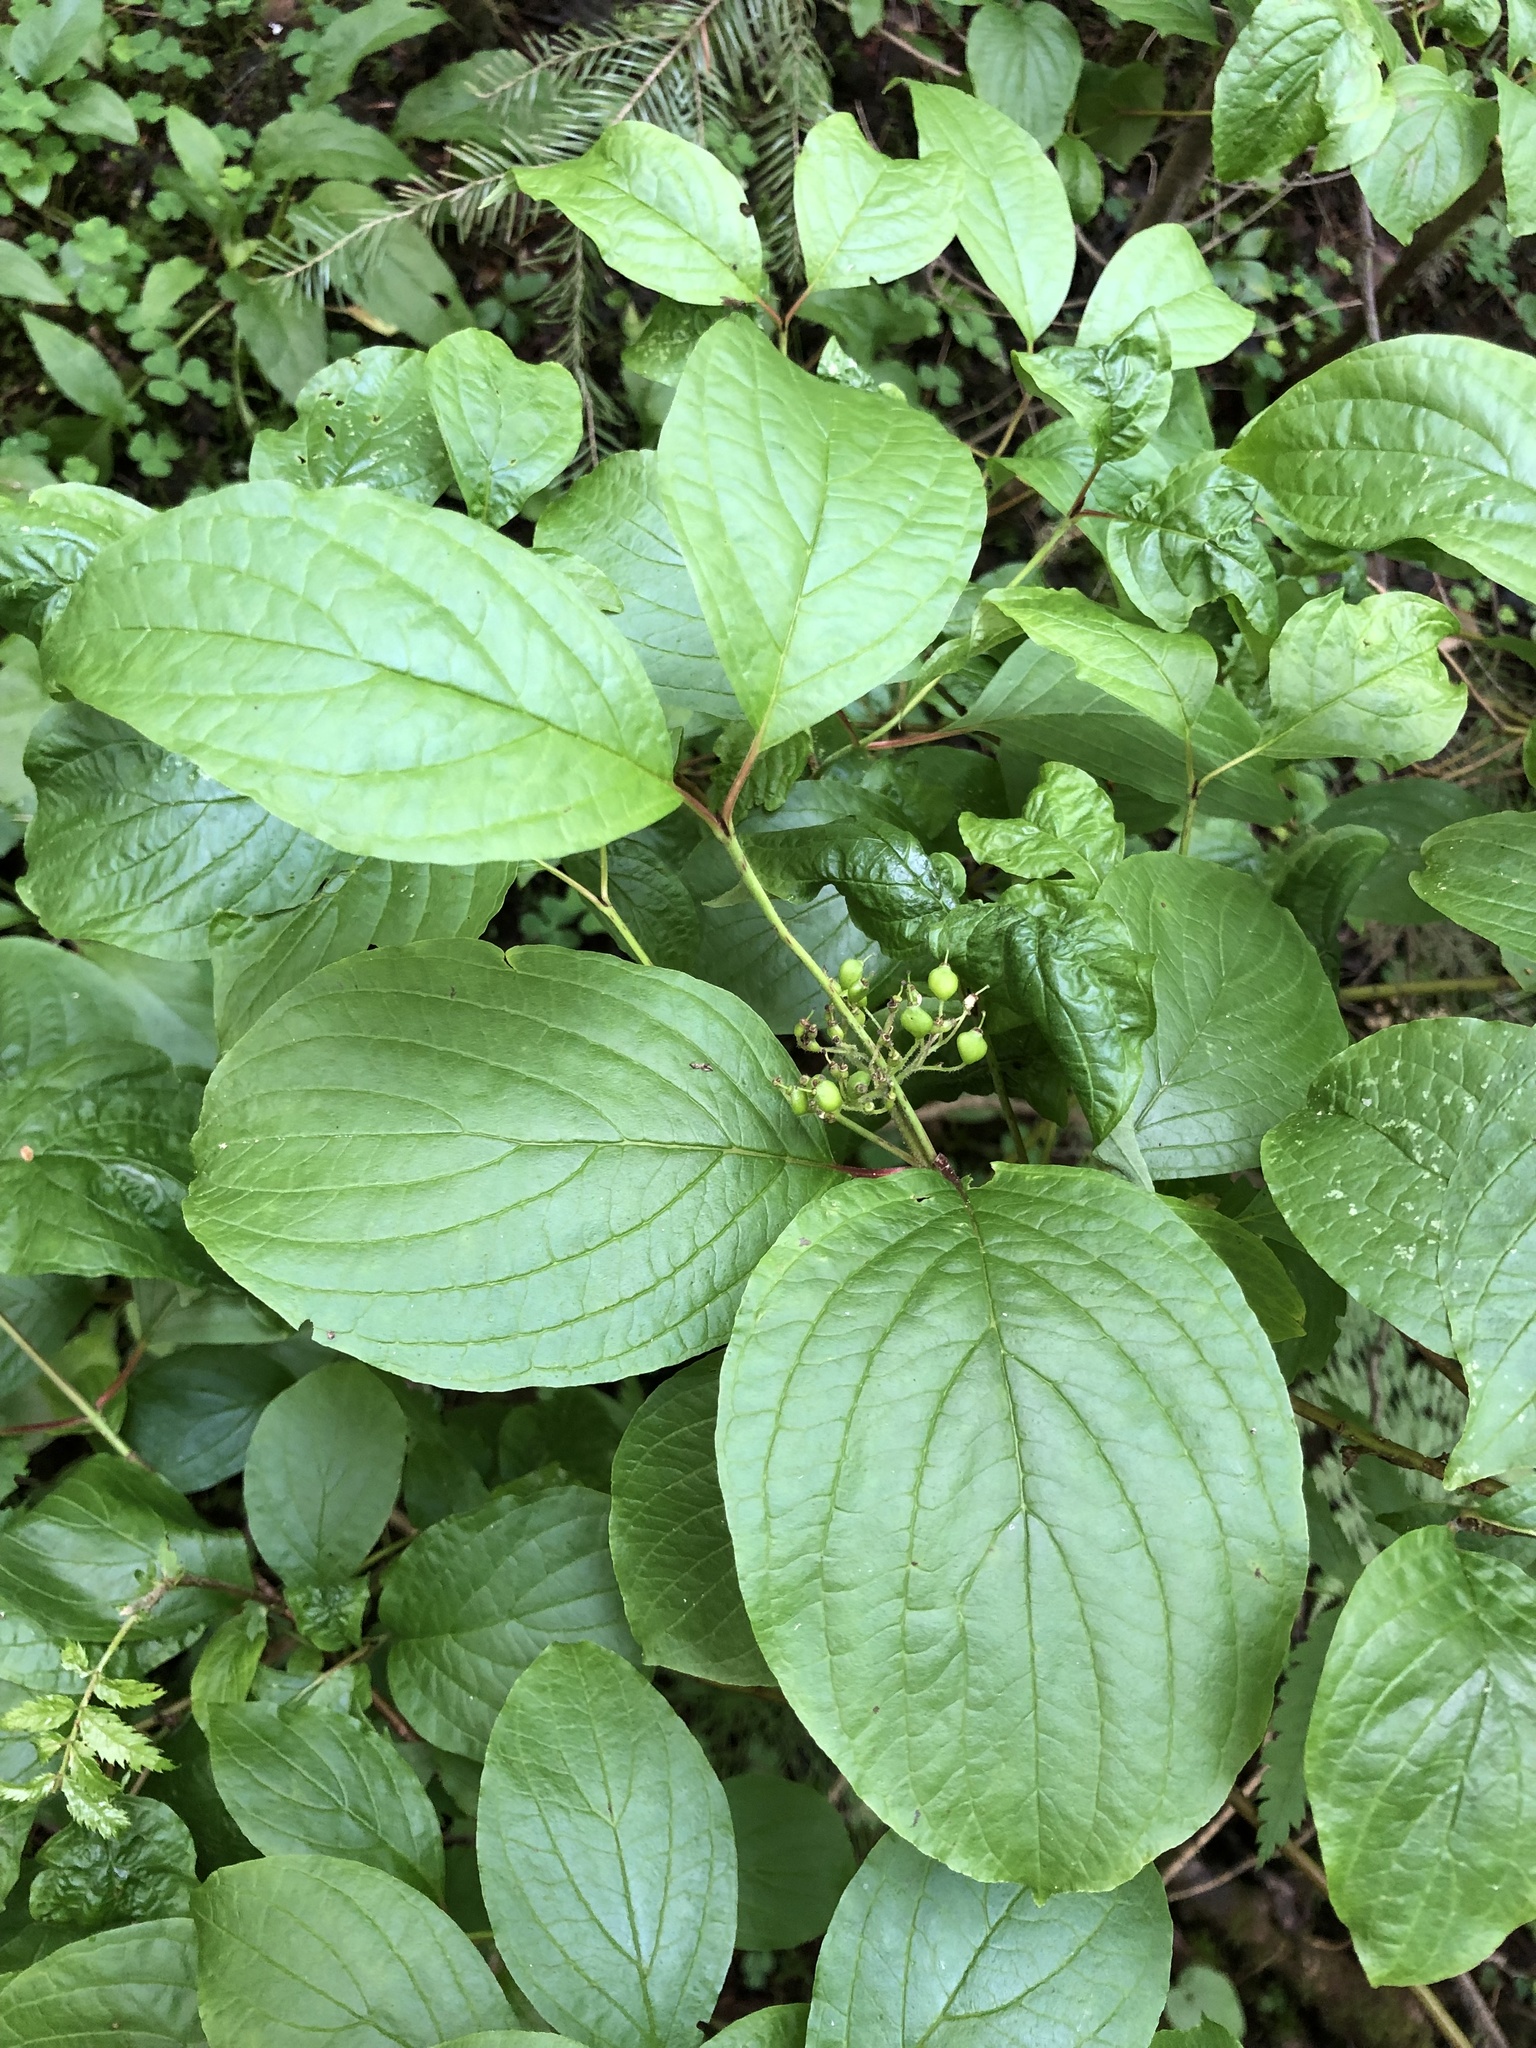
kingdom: Plantae
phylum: Tracheophyta
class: Magnoliopsida
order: Cornales
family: Cornaceae
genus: Cornus
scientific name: Cornus alba
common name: White dogwood
